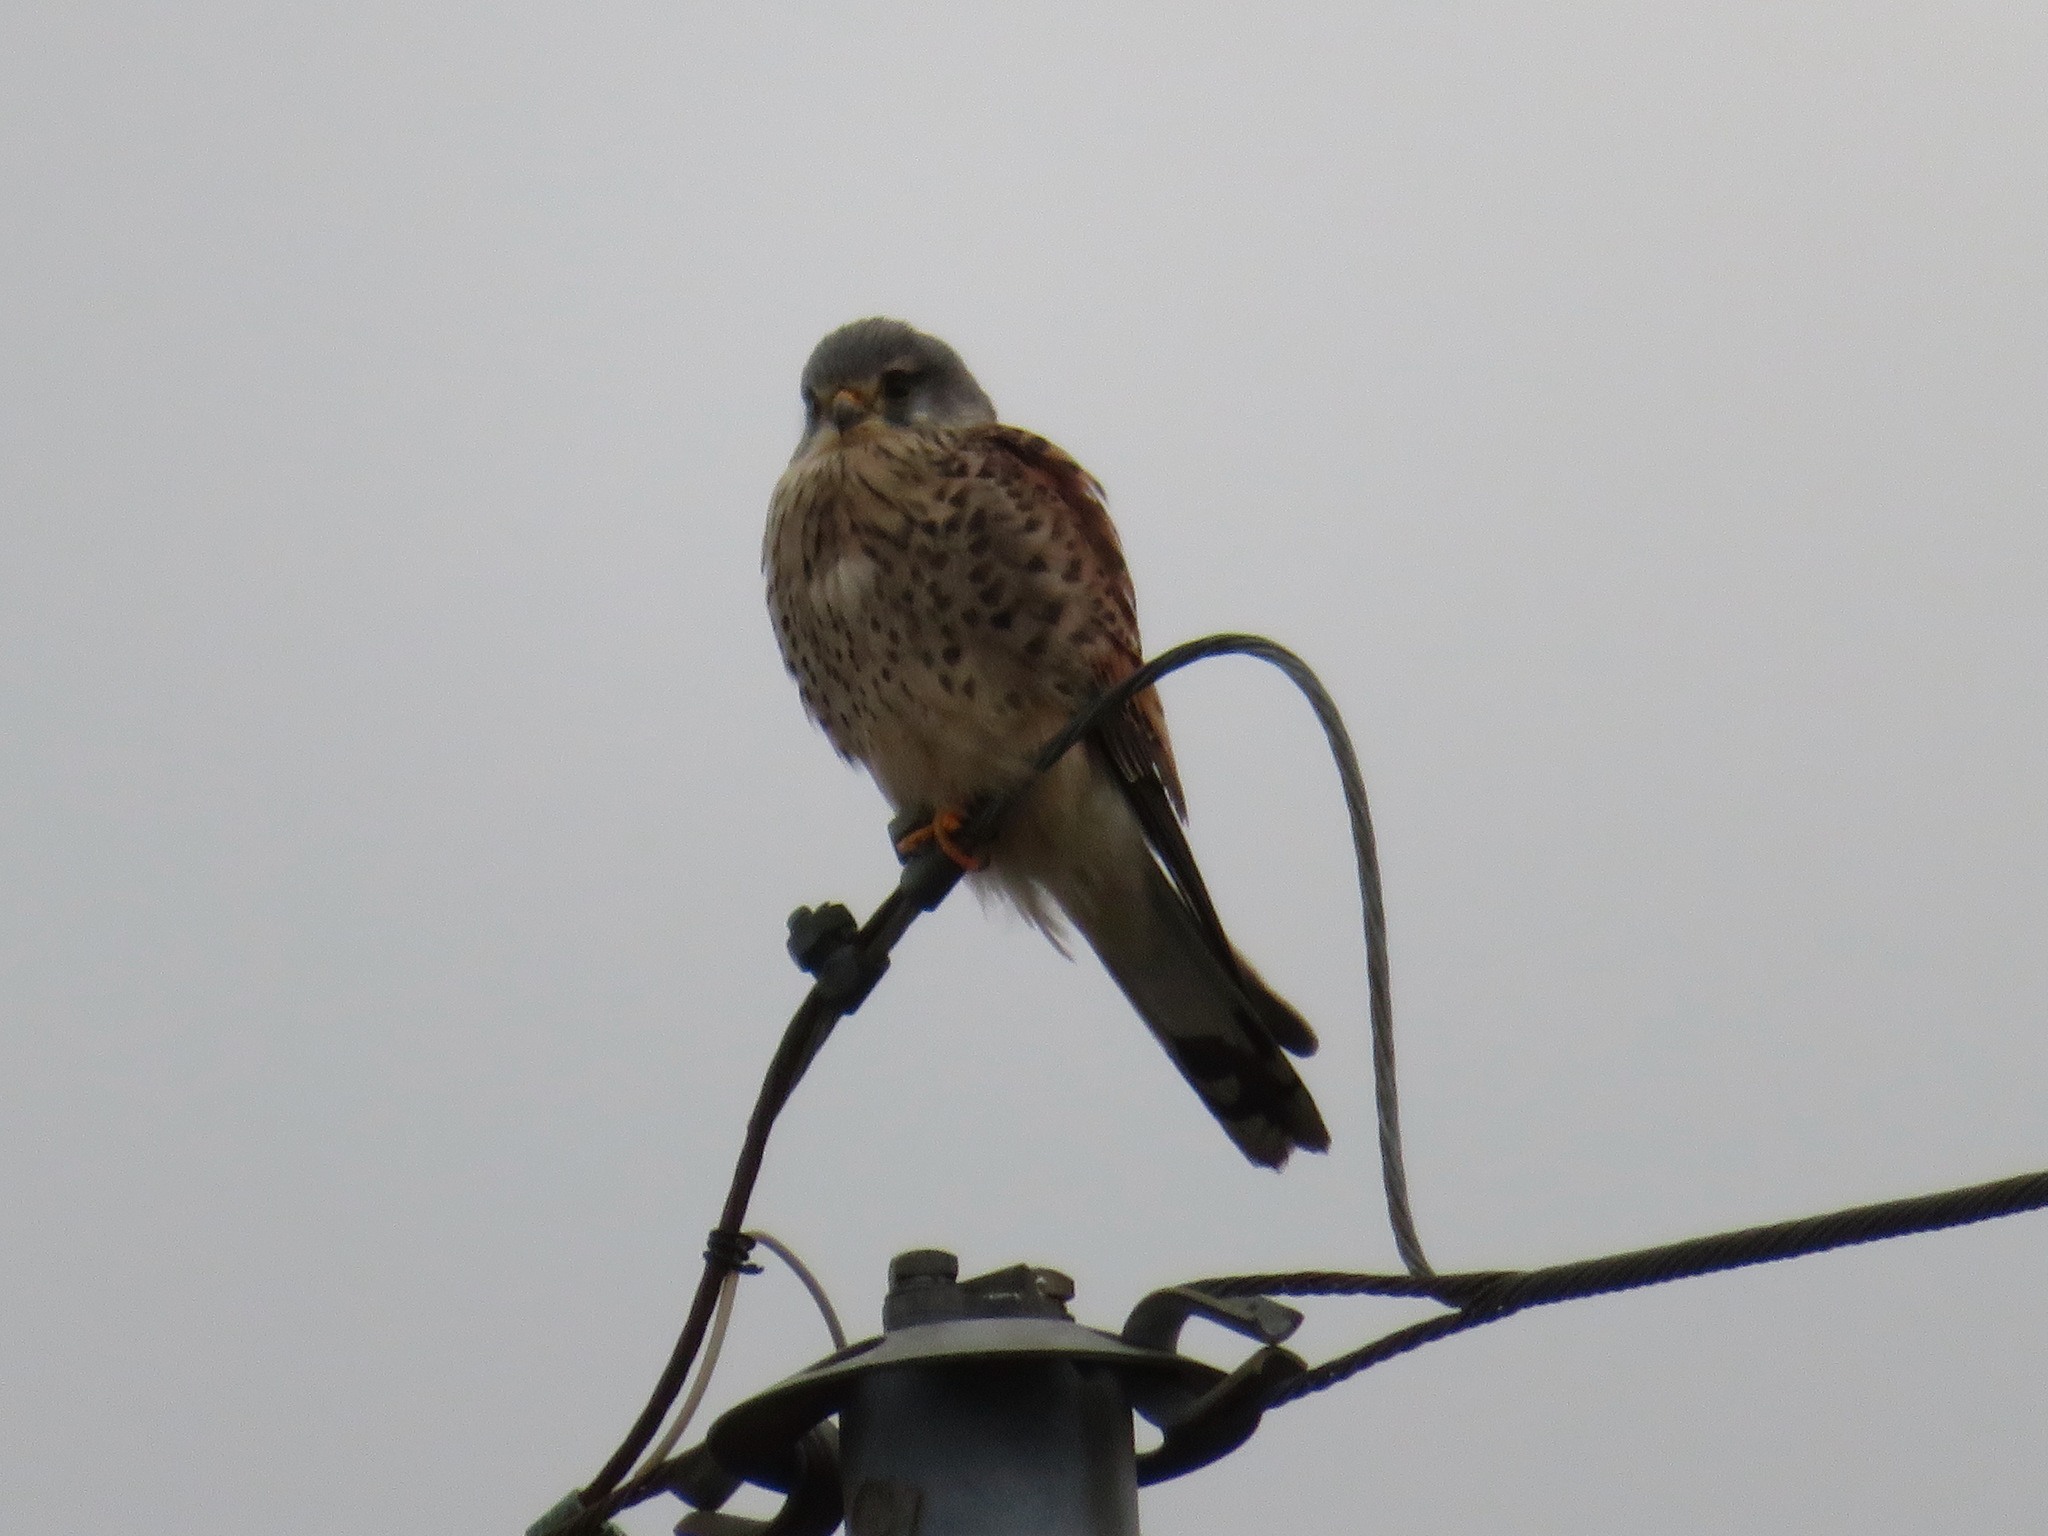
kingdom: Animalia
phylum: Chordata
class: Aves
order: Falconiformes
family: Falconidae
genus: Falco
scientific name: Falco tinnunculus
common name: Common kestrel
